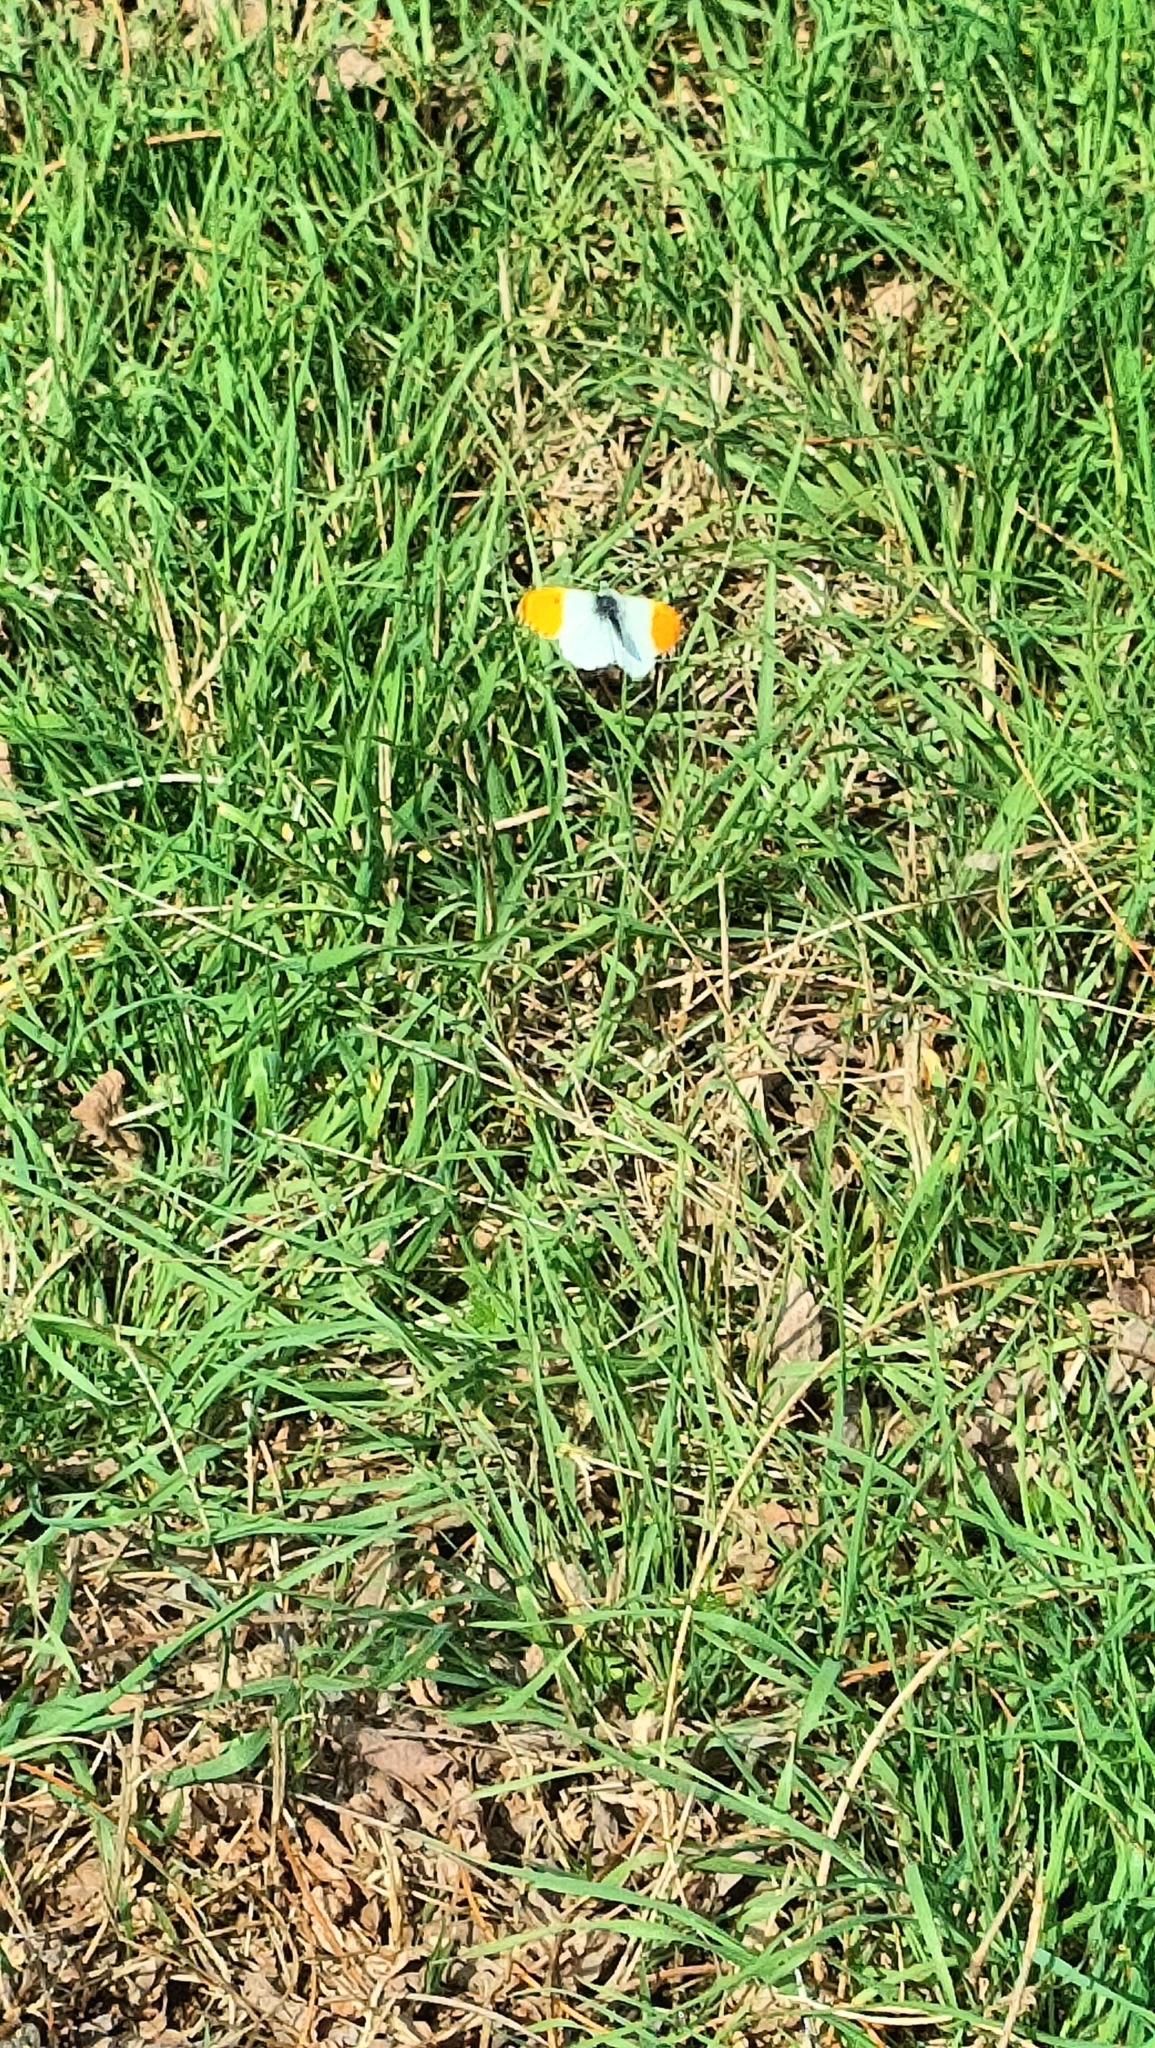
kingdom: Animalia
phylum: Arthropoda
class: Insecta
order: Lepidoptera
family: Pieridae
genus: Anthocharis
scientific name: Anthocharis cardamines
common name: Orange-tip
